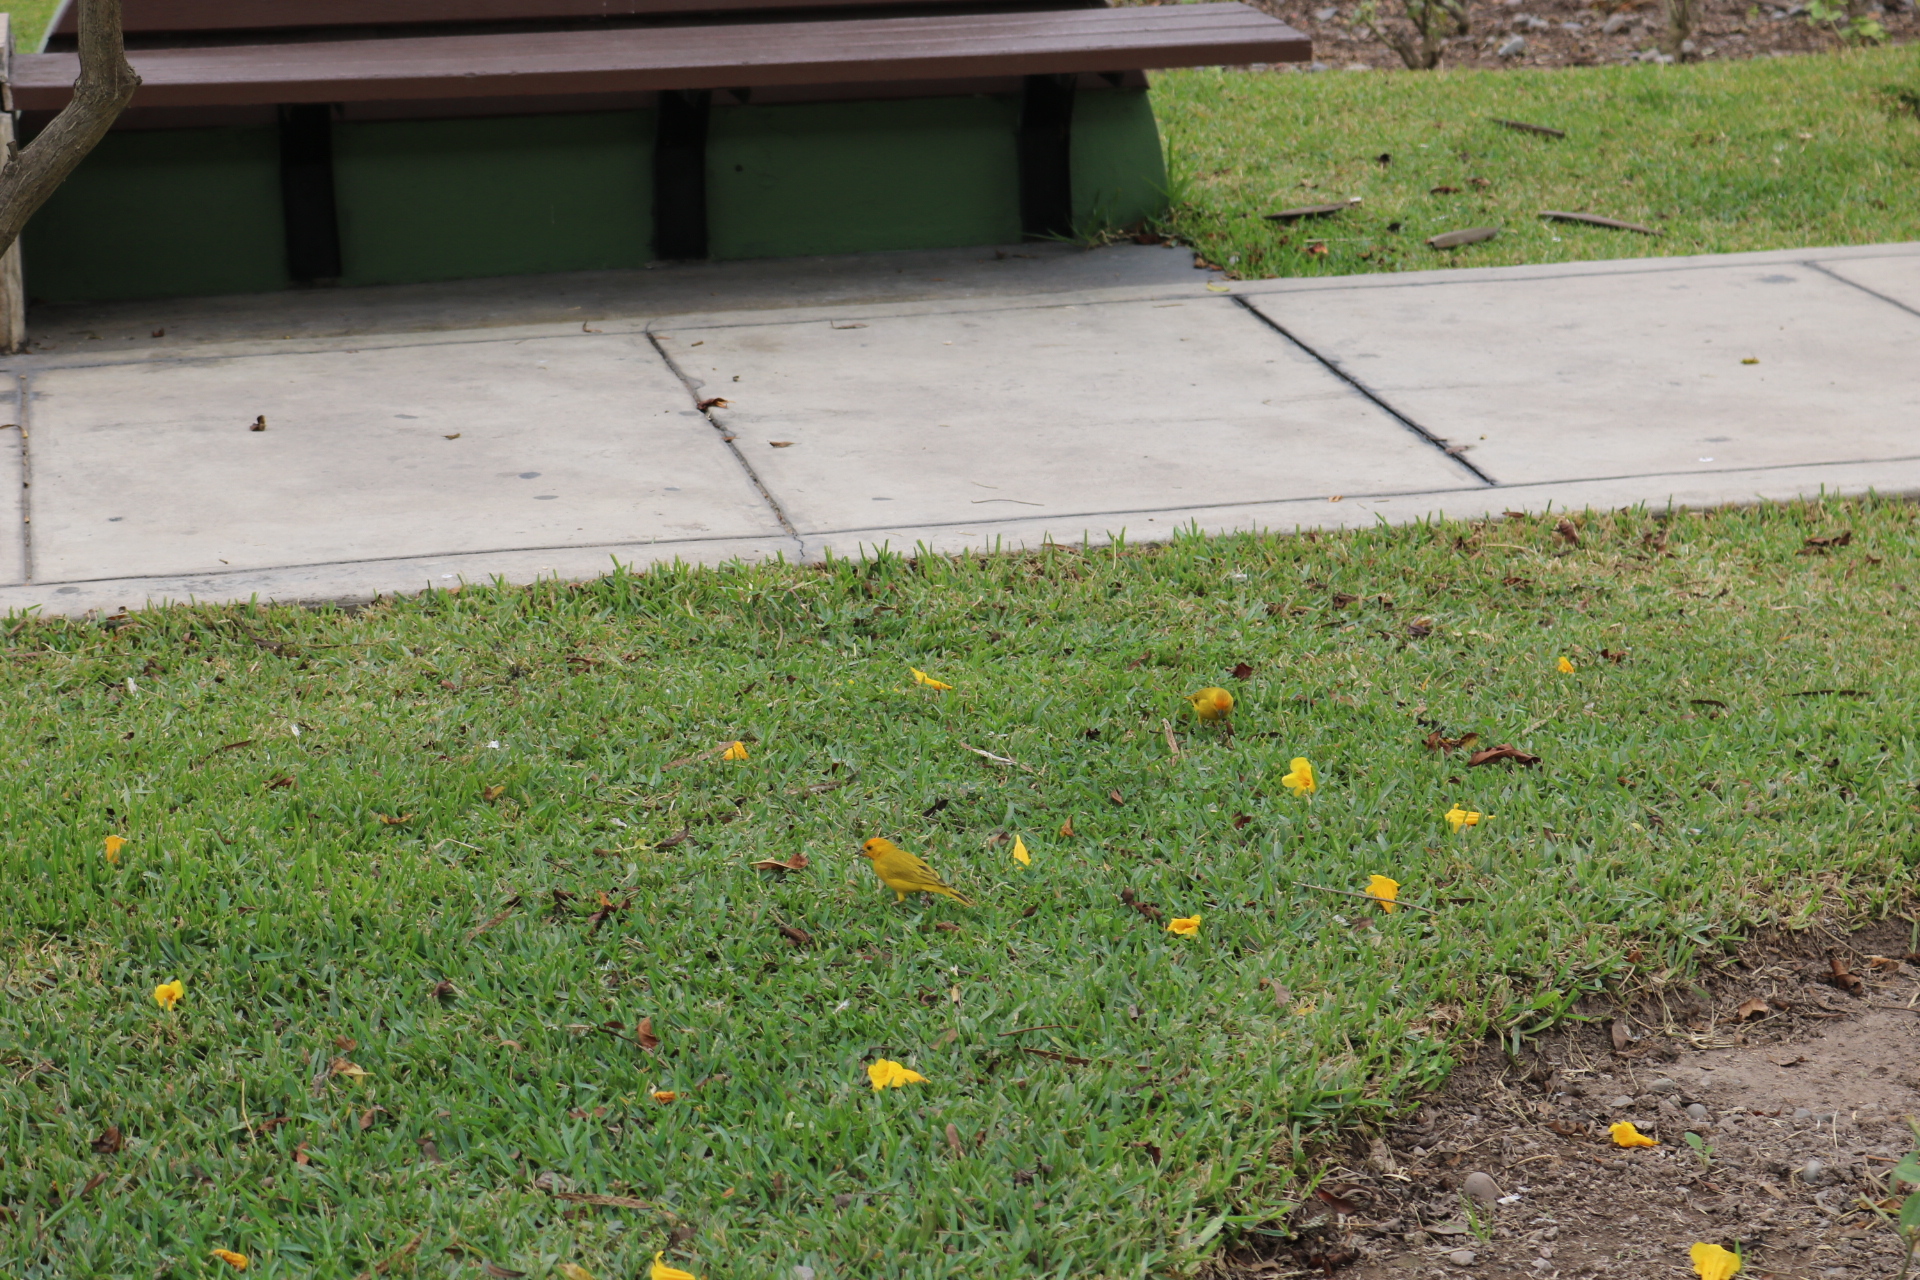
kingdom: Animalia
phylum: Chordata
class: Aves
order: Passeriformes
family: Thraupidae
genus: Sicalis
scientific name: Sicalis flaveola
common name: Saffron finch
